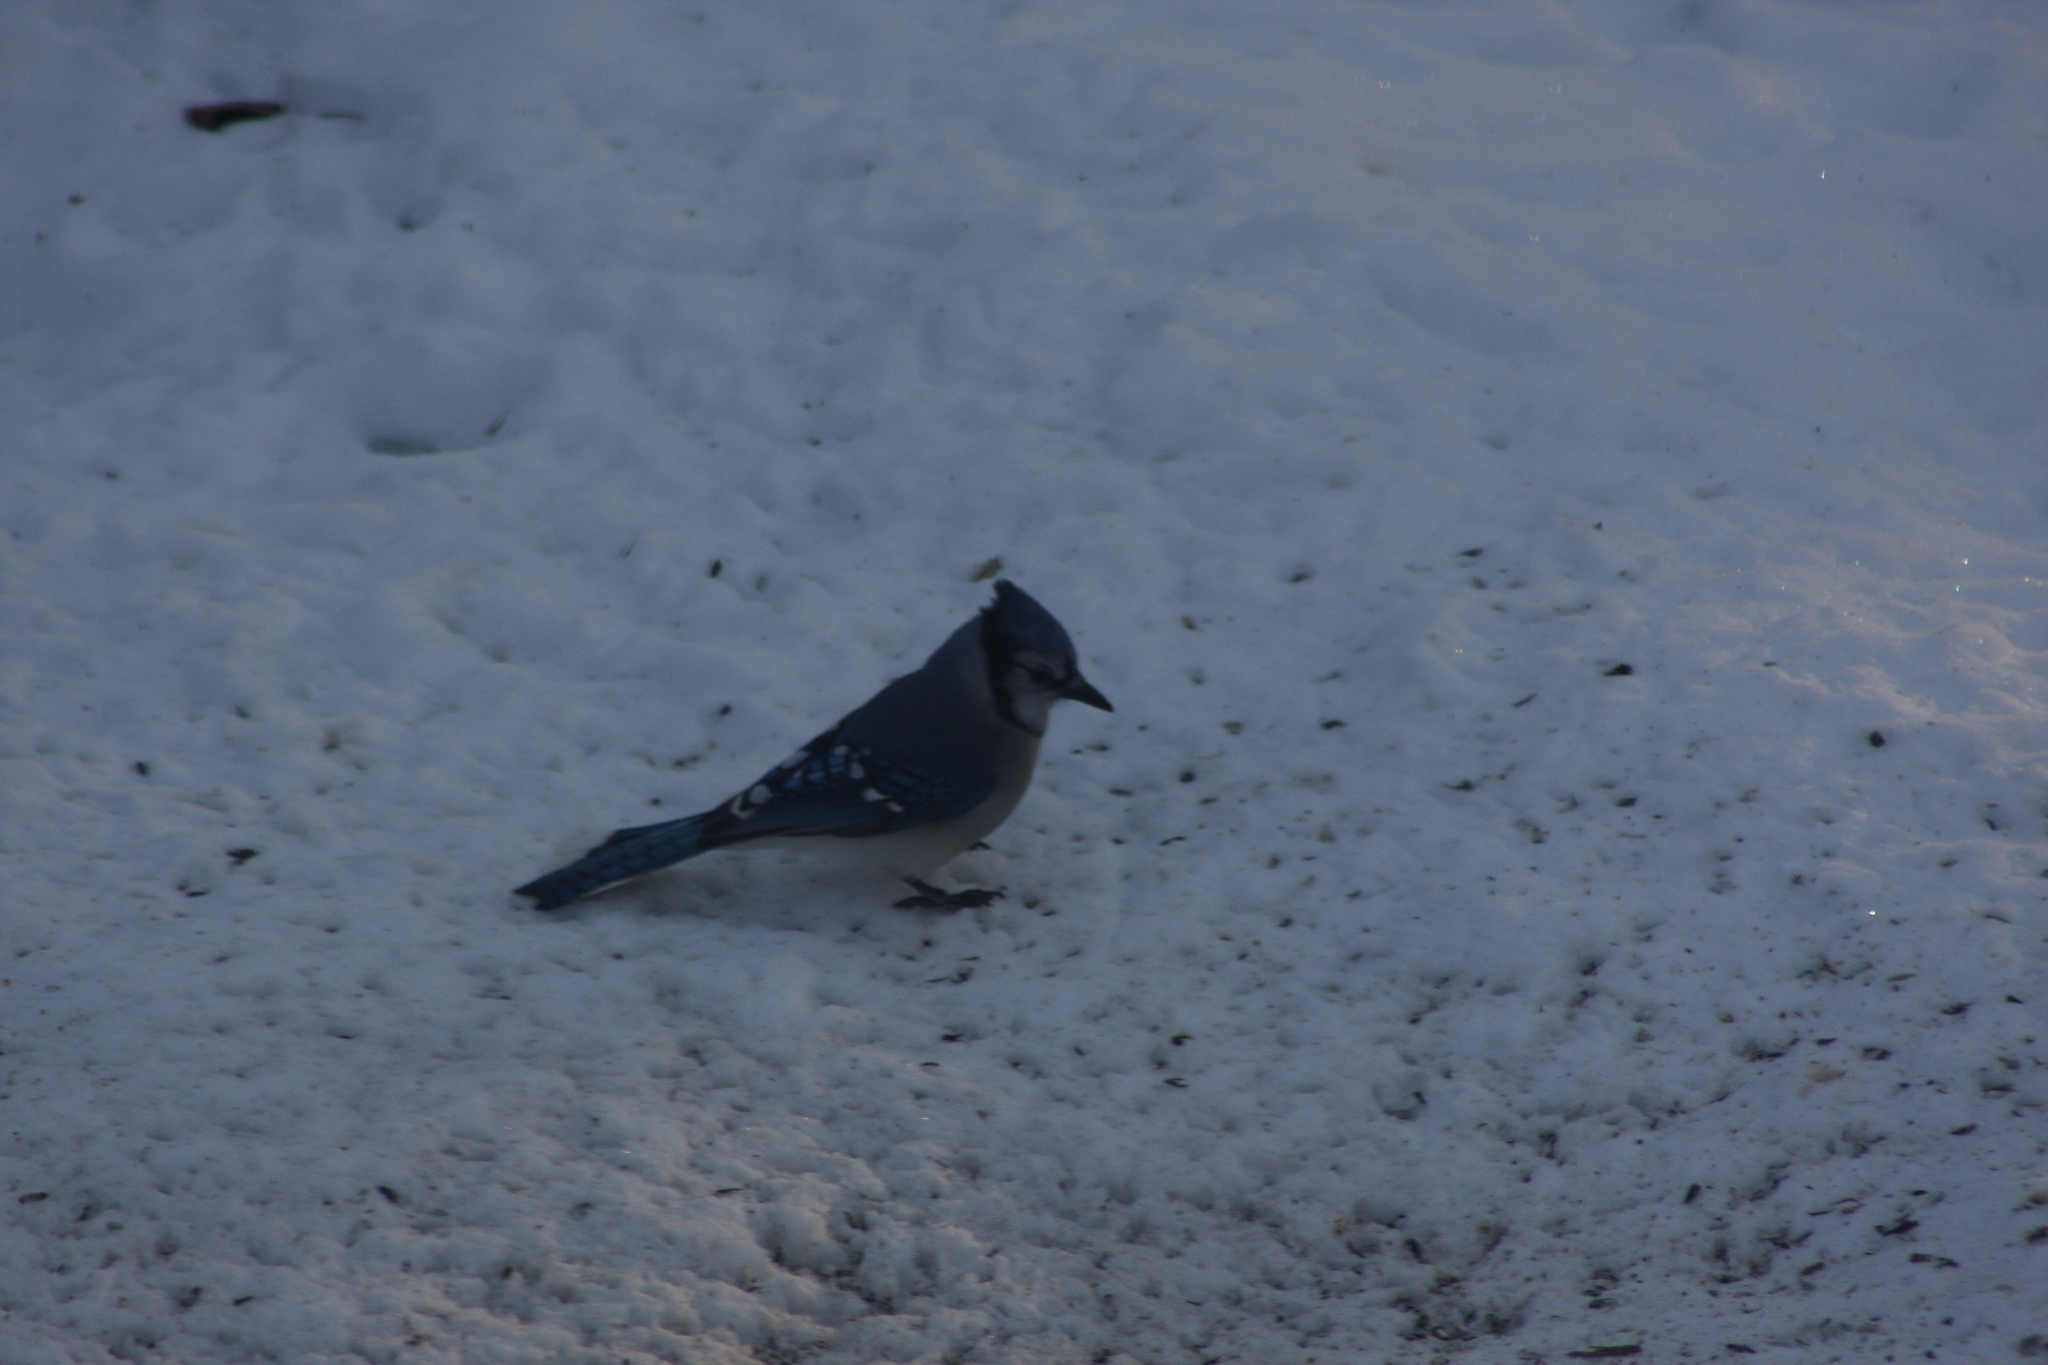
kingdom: Animalia
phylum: Chordata
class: Aves
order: Passeriformes
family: Corvidae
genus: Cyanocitta
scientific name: Cyanocitta cristata
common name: Blue jay
